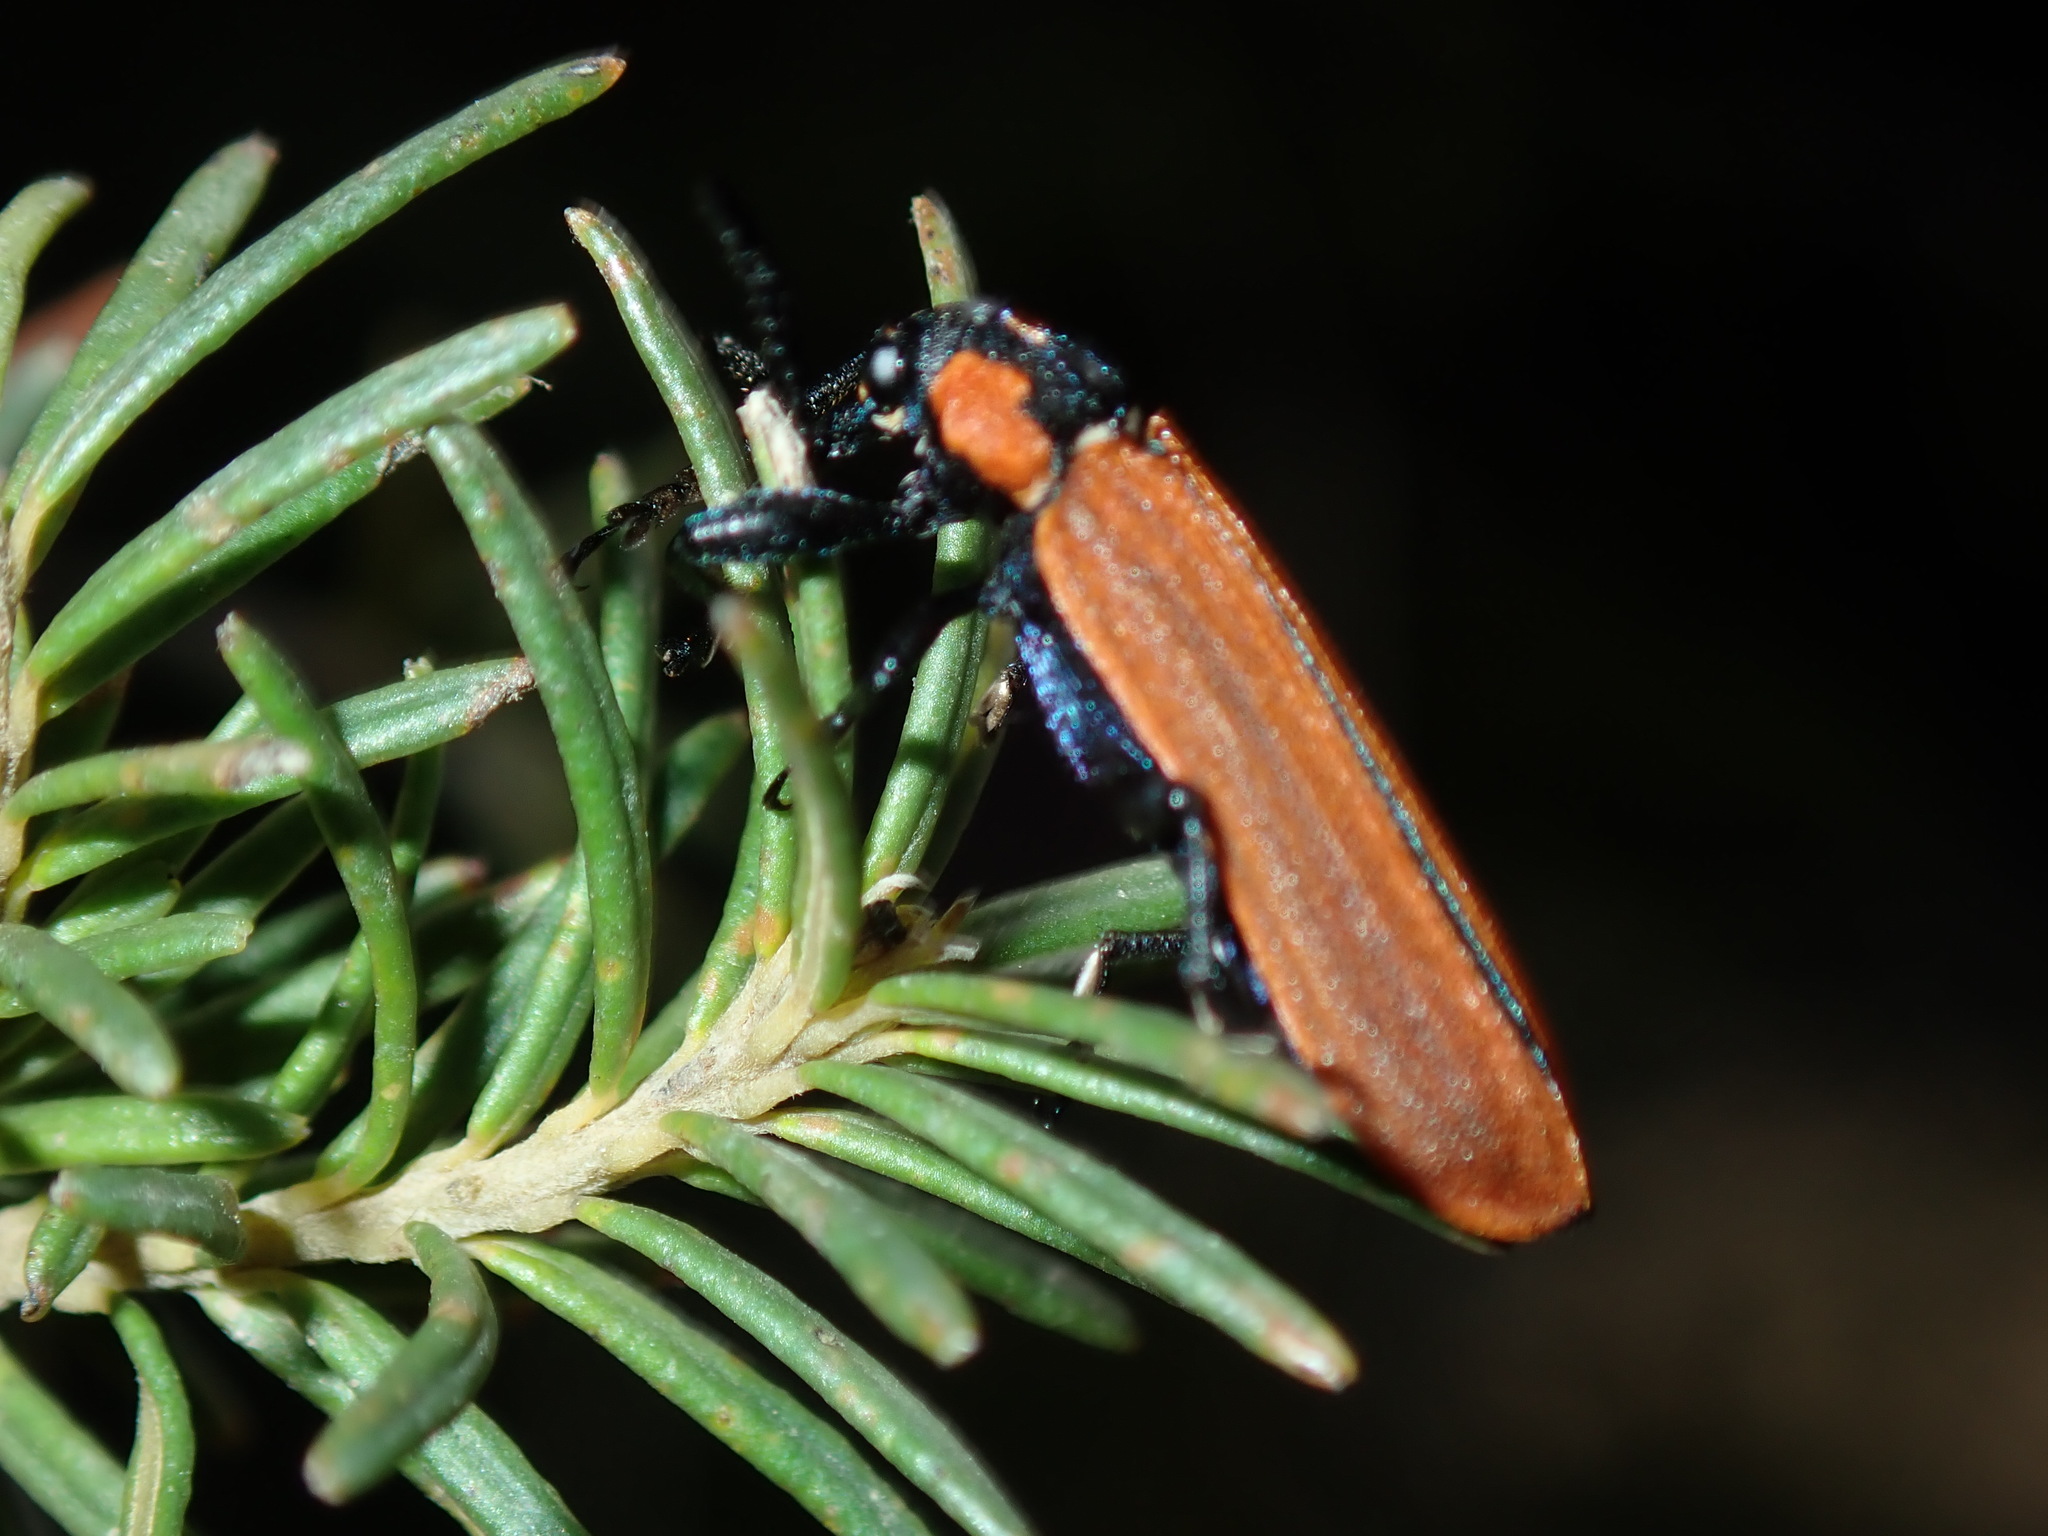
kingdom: Animalia
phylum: Arthropoda
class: Insecta
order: Coleoptera
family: Belidae
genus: Rhinotia
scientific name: Rhinotia haemoptera
